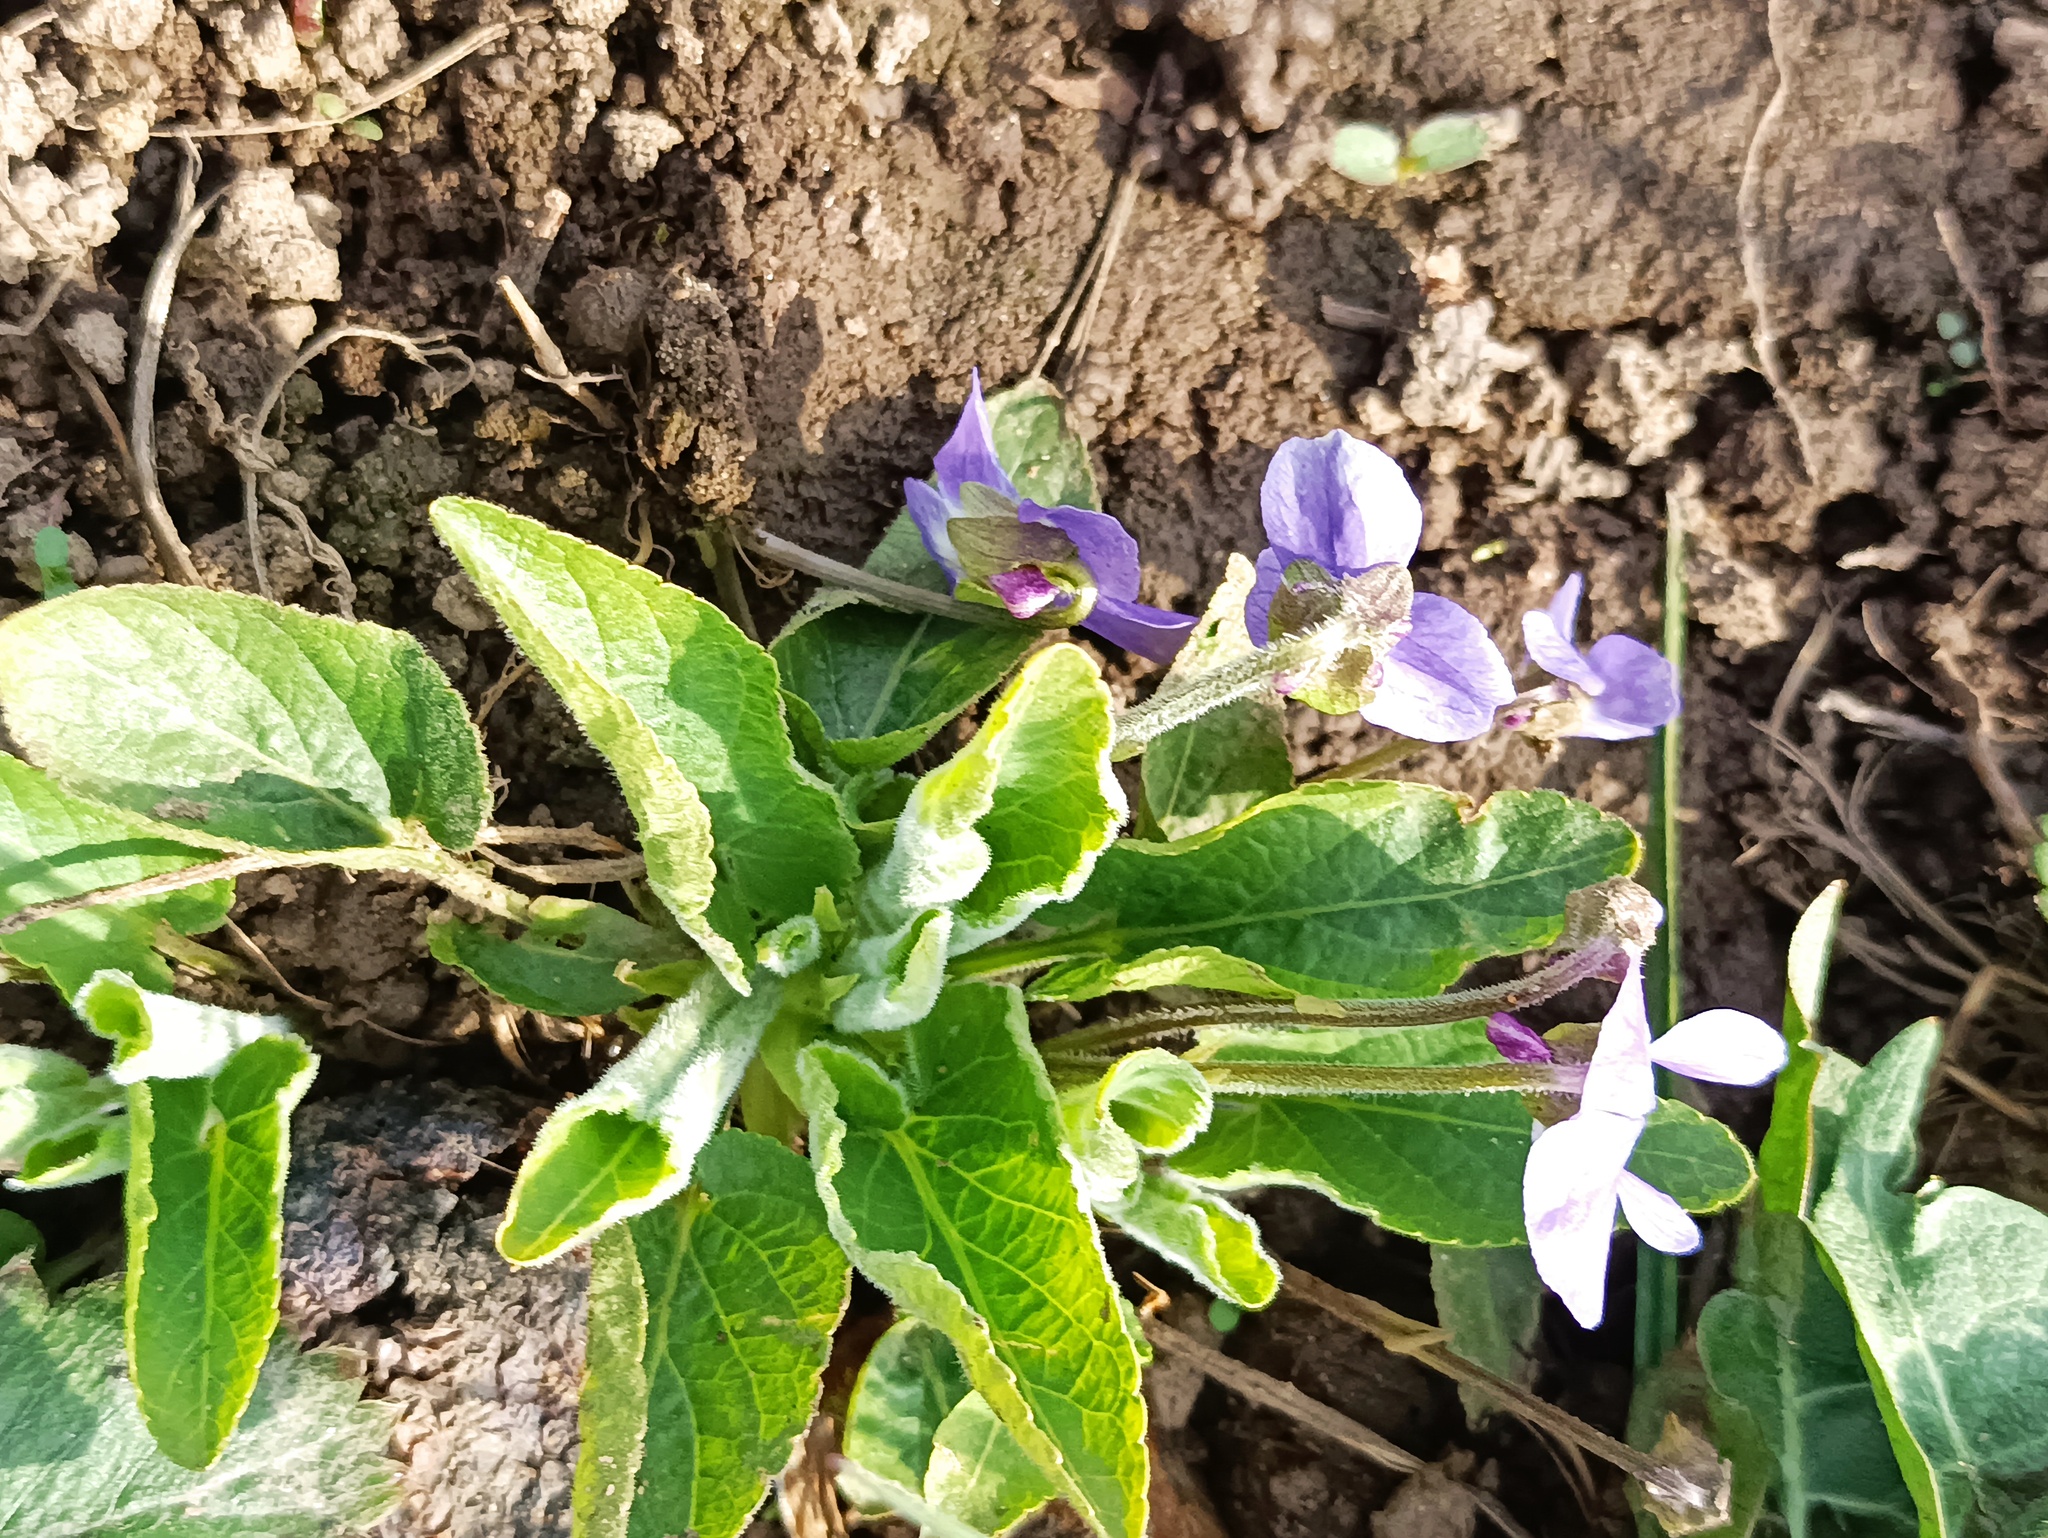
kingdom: Plantae
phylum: Tracheophyta
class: Magnoliopsida
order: Malpighiales
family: Violaceae
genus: Viola
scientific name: Viola hirta
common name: Hairy violet
